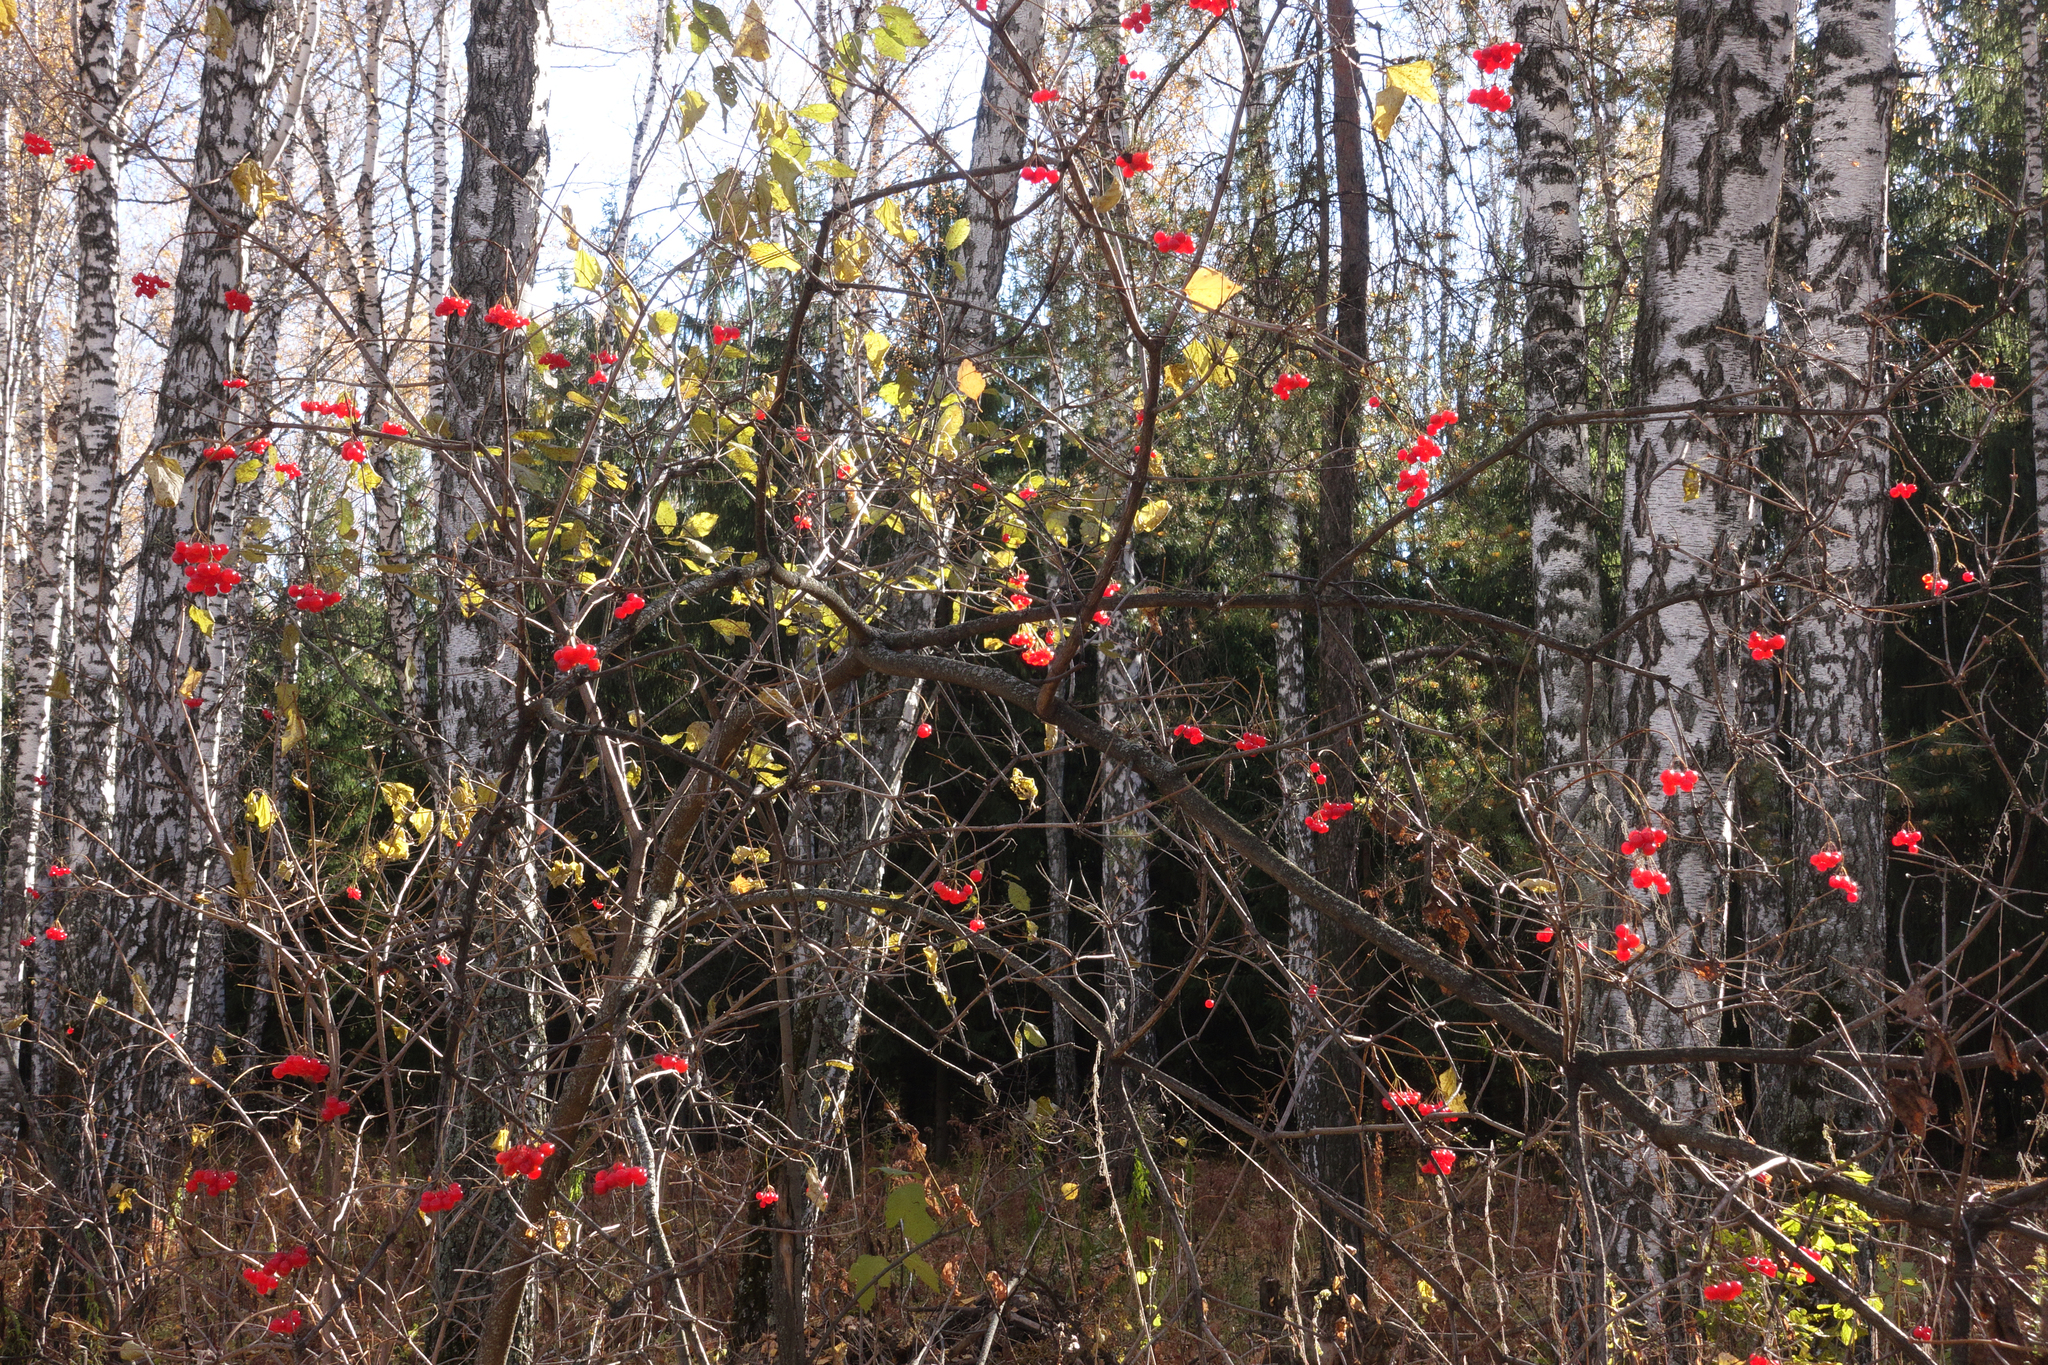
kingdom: Plantae
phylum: Tracheophyta
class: Magnoliopsida
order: Dipsacales
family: Viburnaceae
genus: Viburnum
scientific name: Viburnum opulus
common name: Guelder-rose
